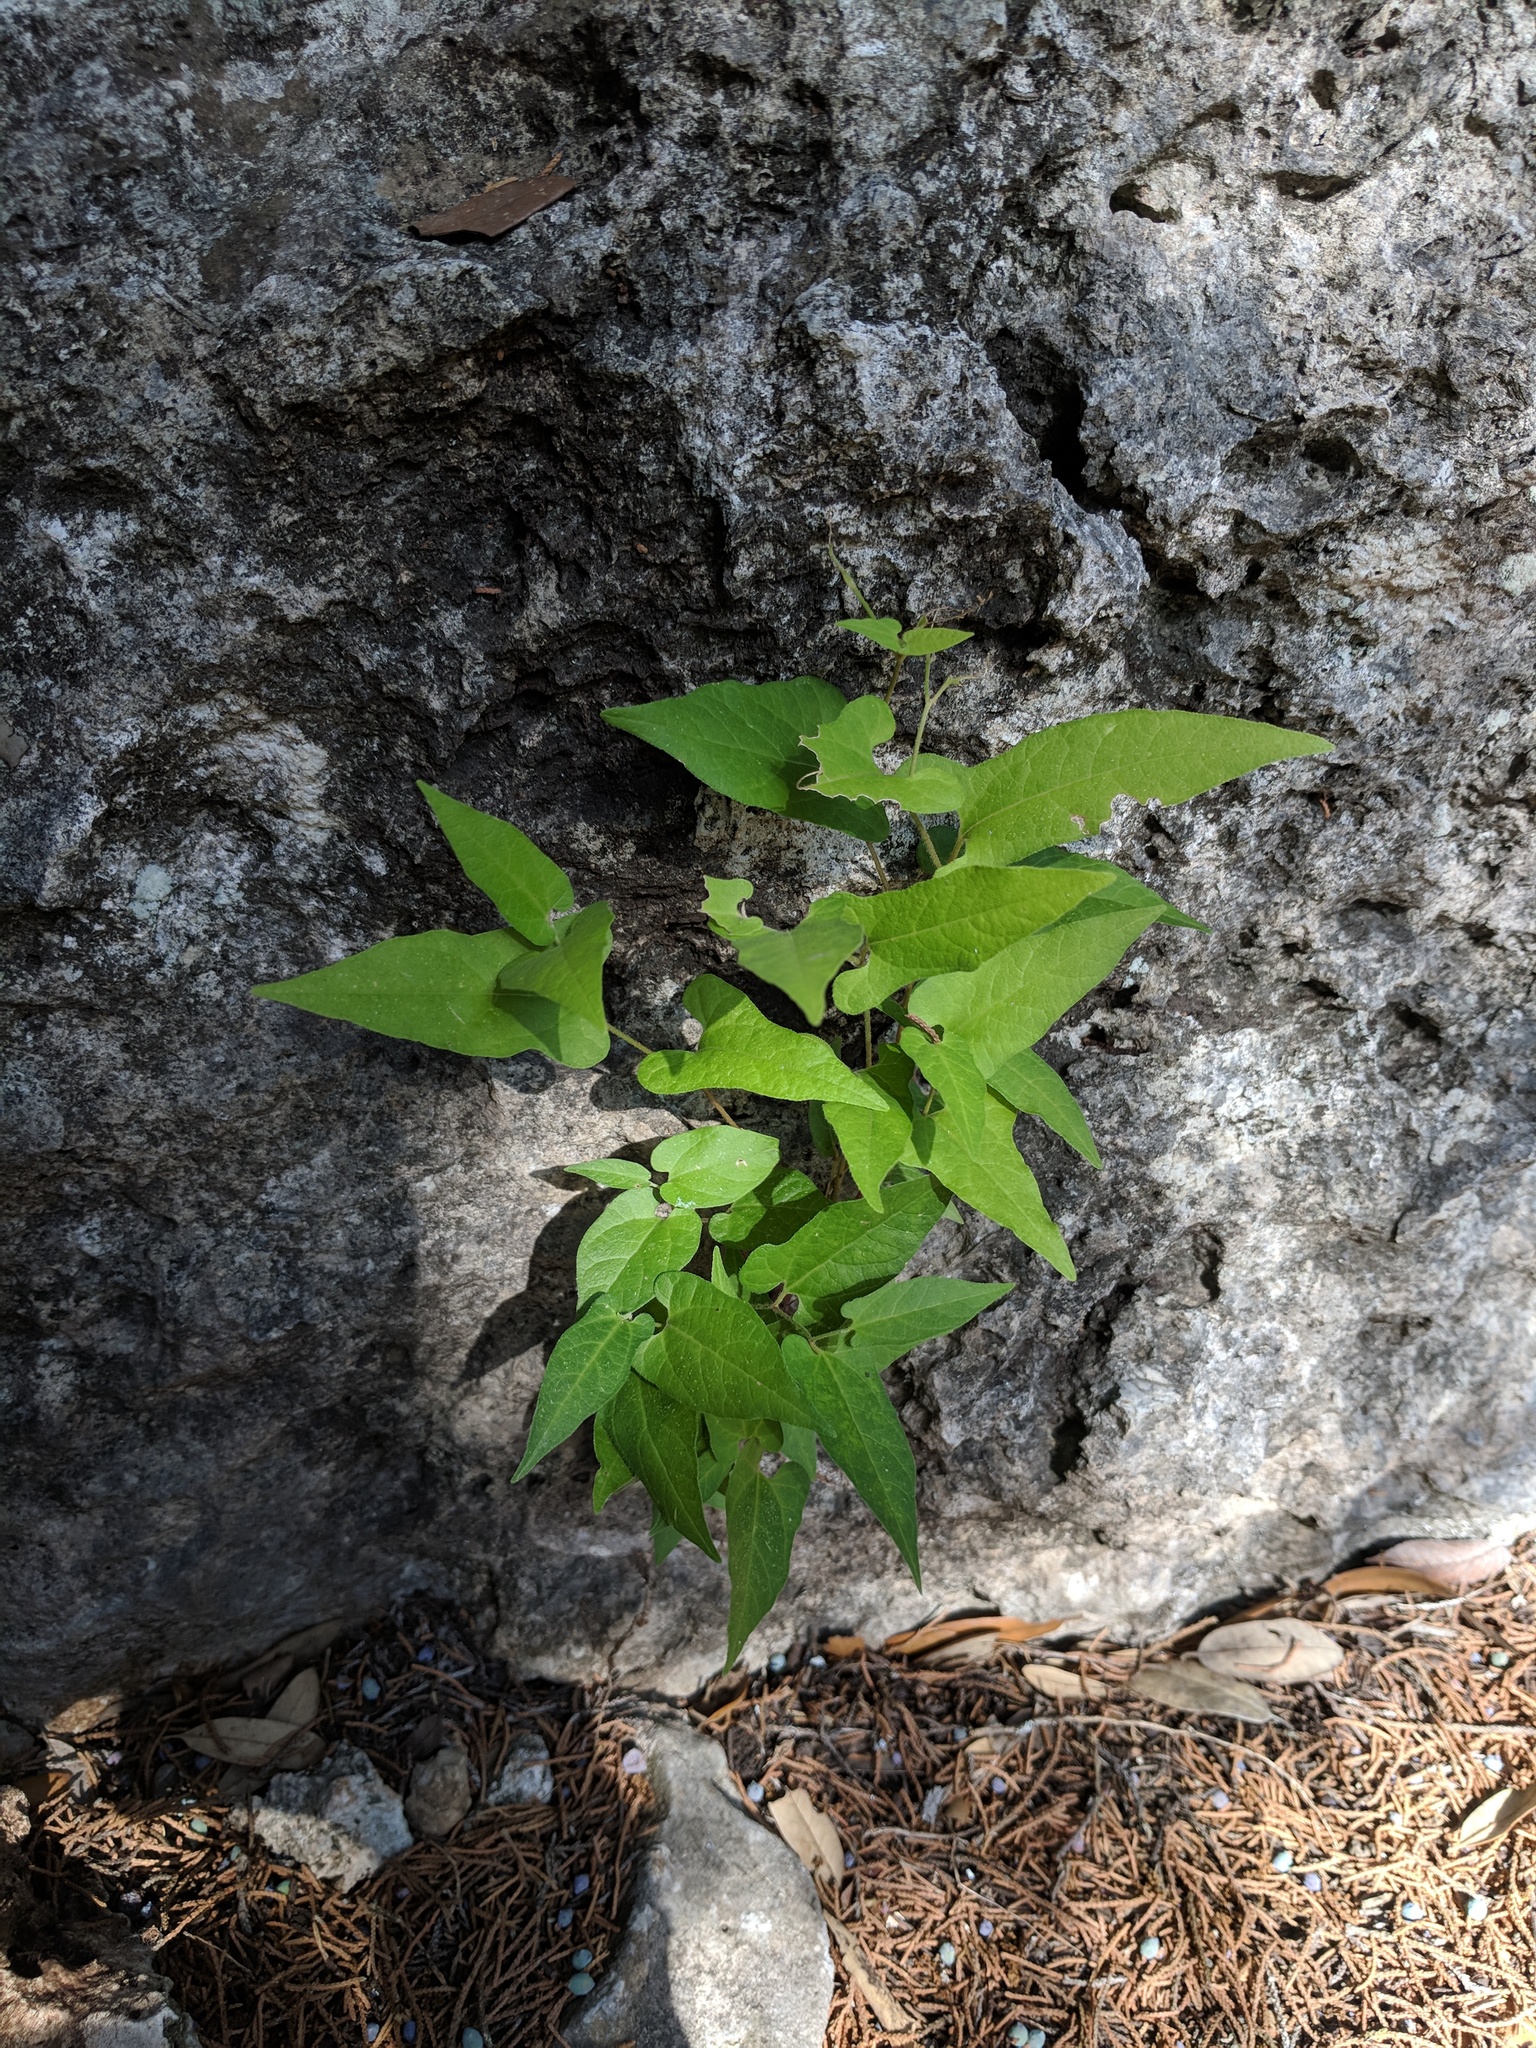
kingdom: Plantae
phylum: Tracheophyta
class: Magnoliopsida
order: Piperales
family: Aristolochiaceae
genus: Endodeca
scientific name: Endodeca serpentaria
